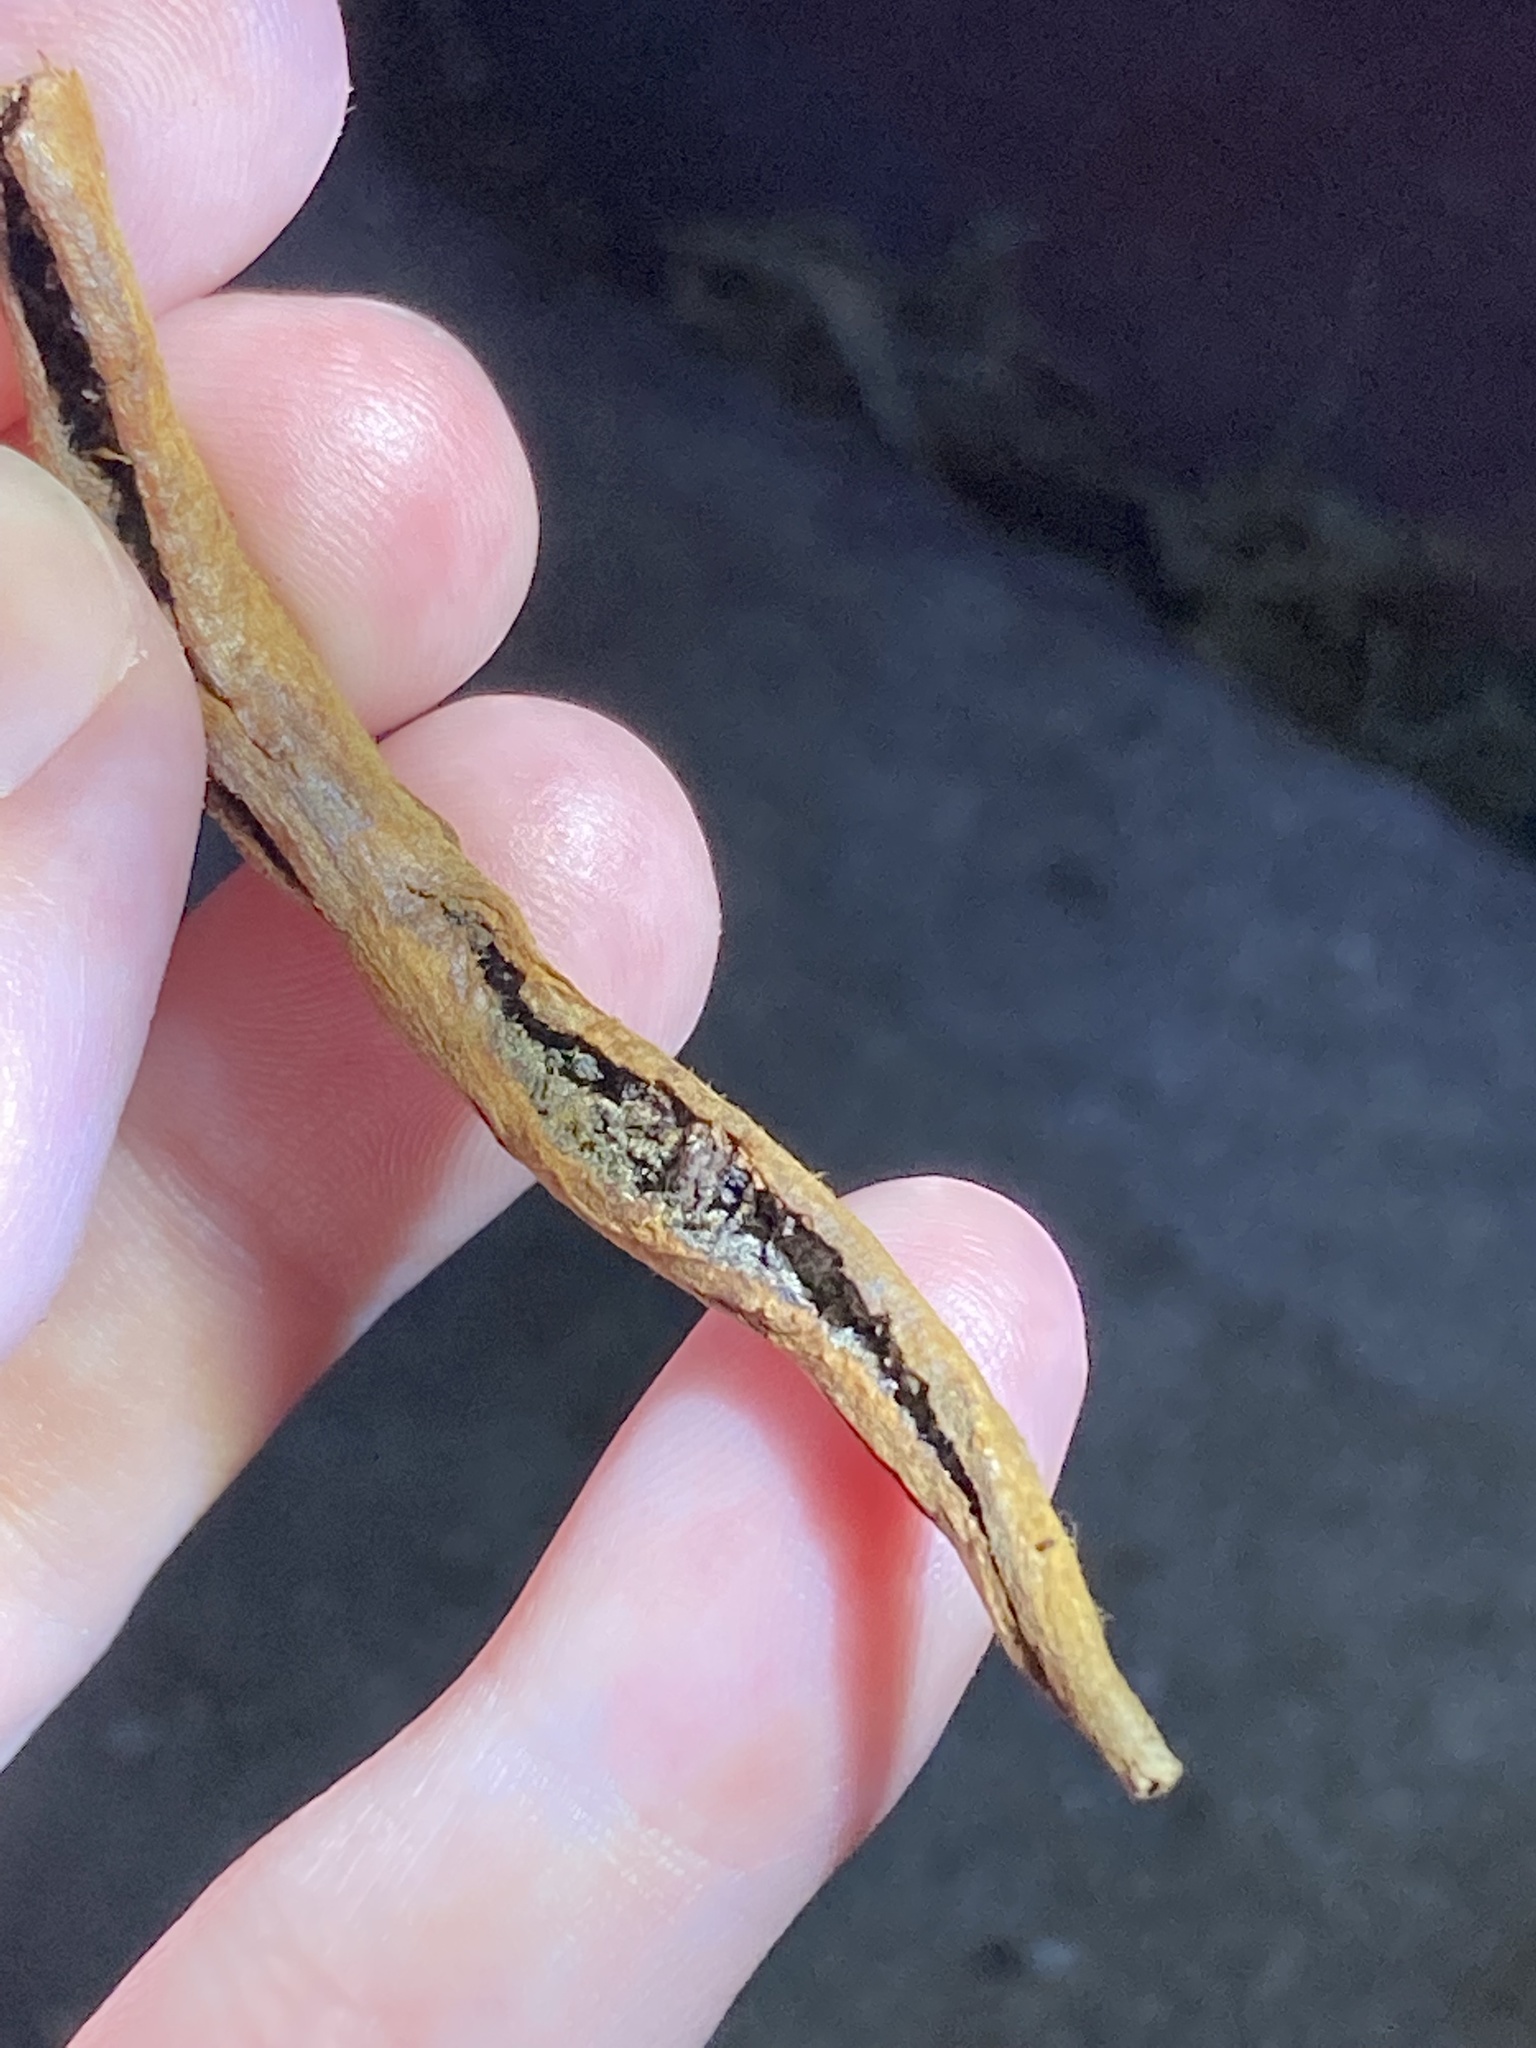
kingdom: Animalia
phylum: Arthropoda
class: Arachnida
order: Trombidiformes
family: Eriophyidae
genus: Eriophyes
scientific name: Eriophyes
